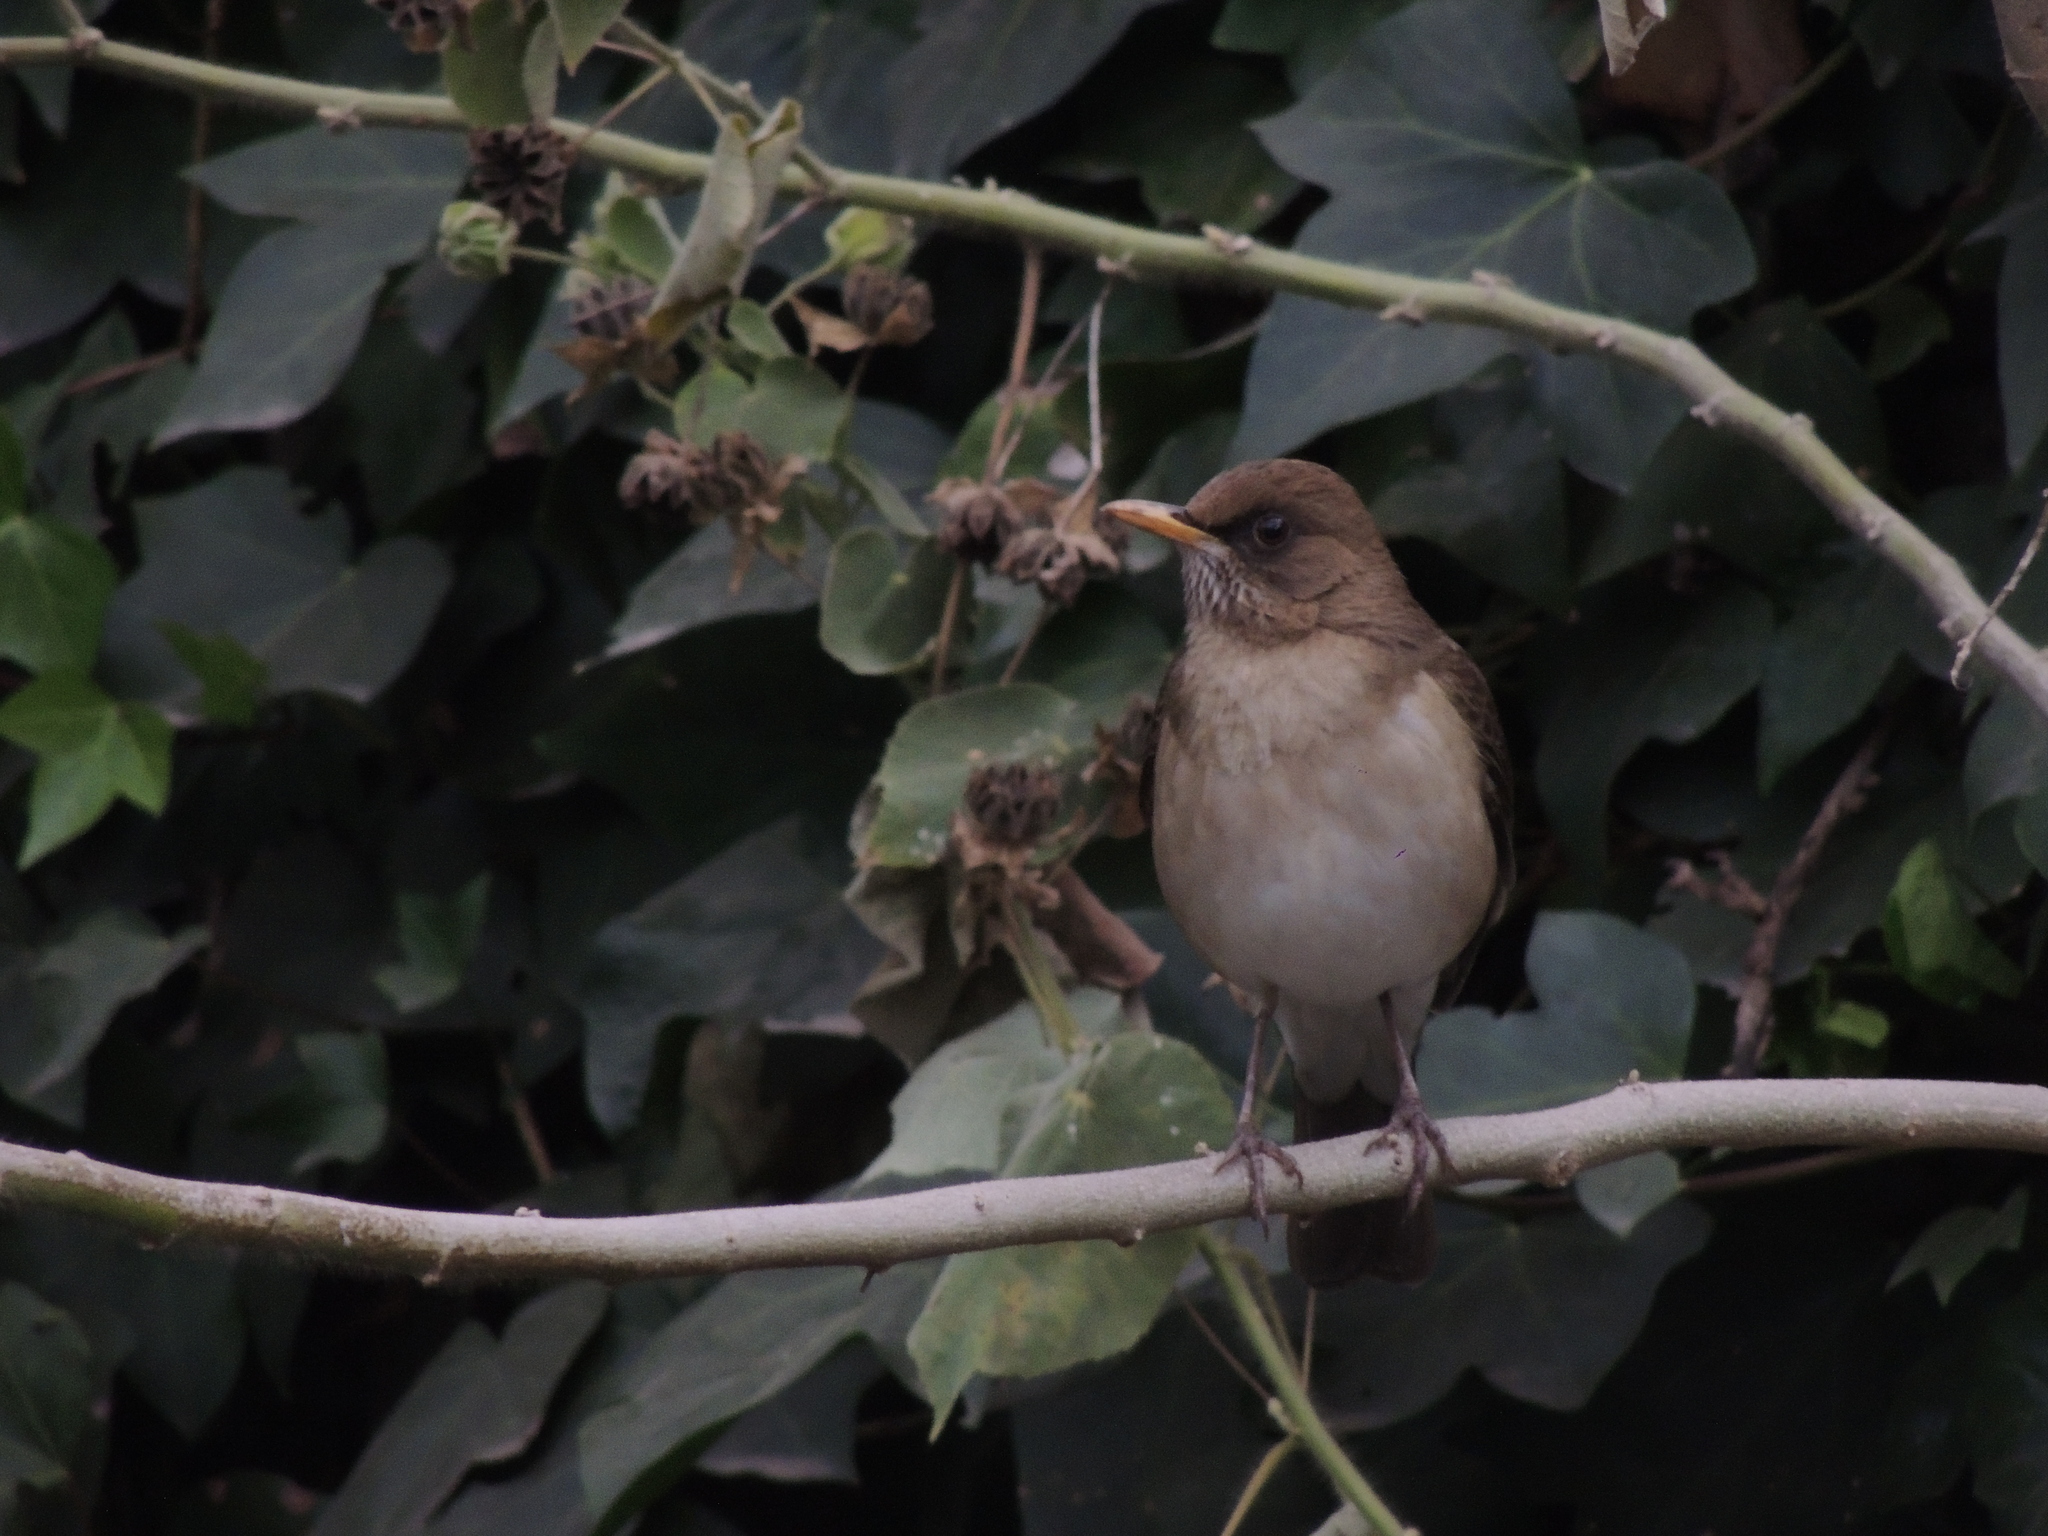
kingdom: Animalia
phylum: Chordata
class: Aves
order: Passeriformes
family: Turdidae
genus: Turdus
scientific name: Turdus amaurochalinus
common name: Creamy-bellied thrush
